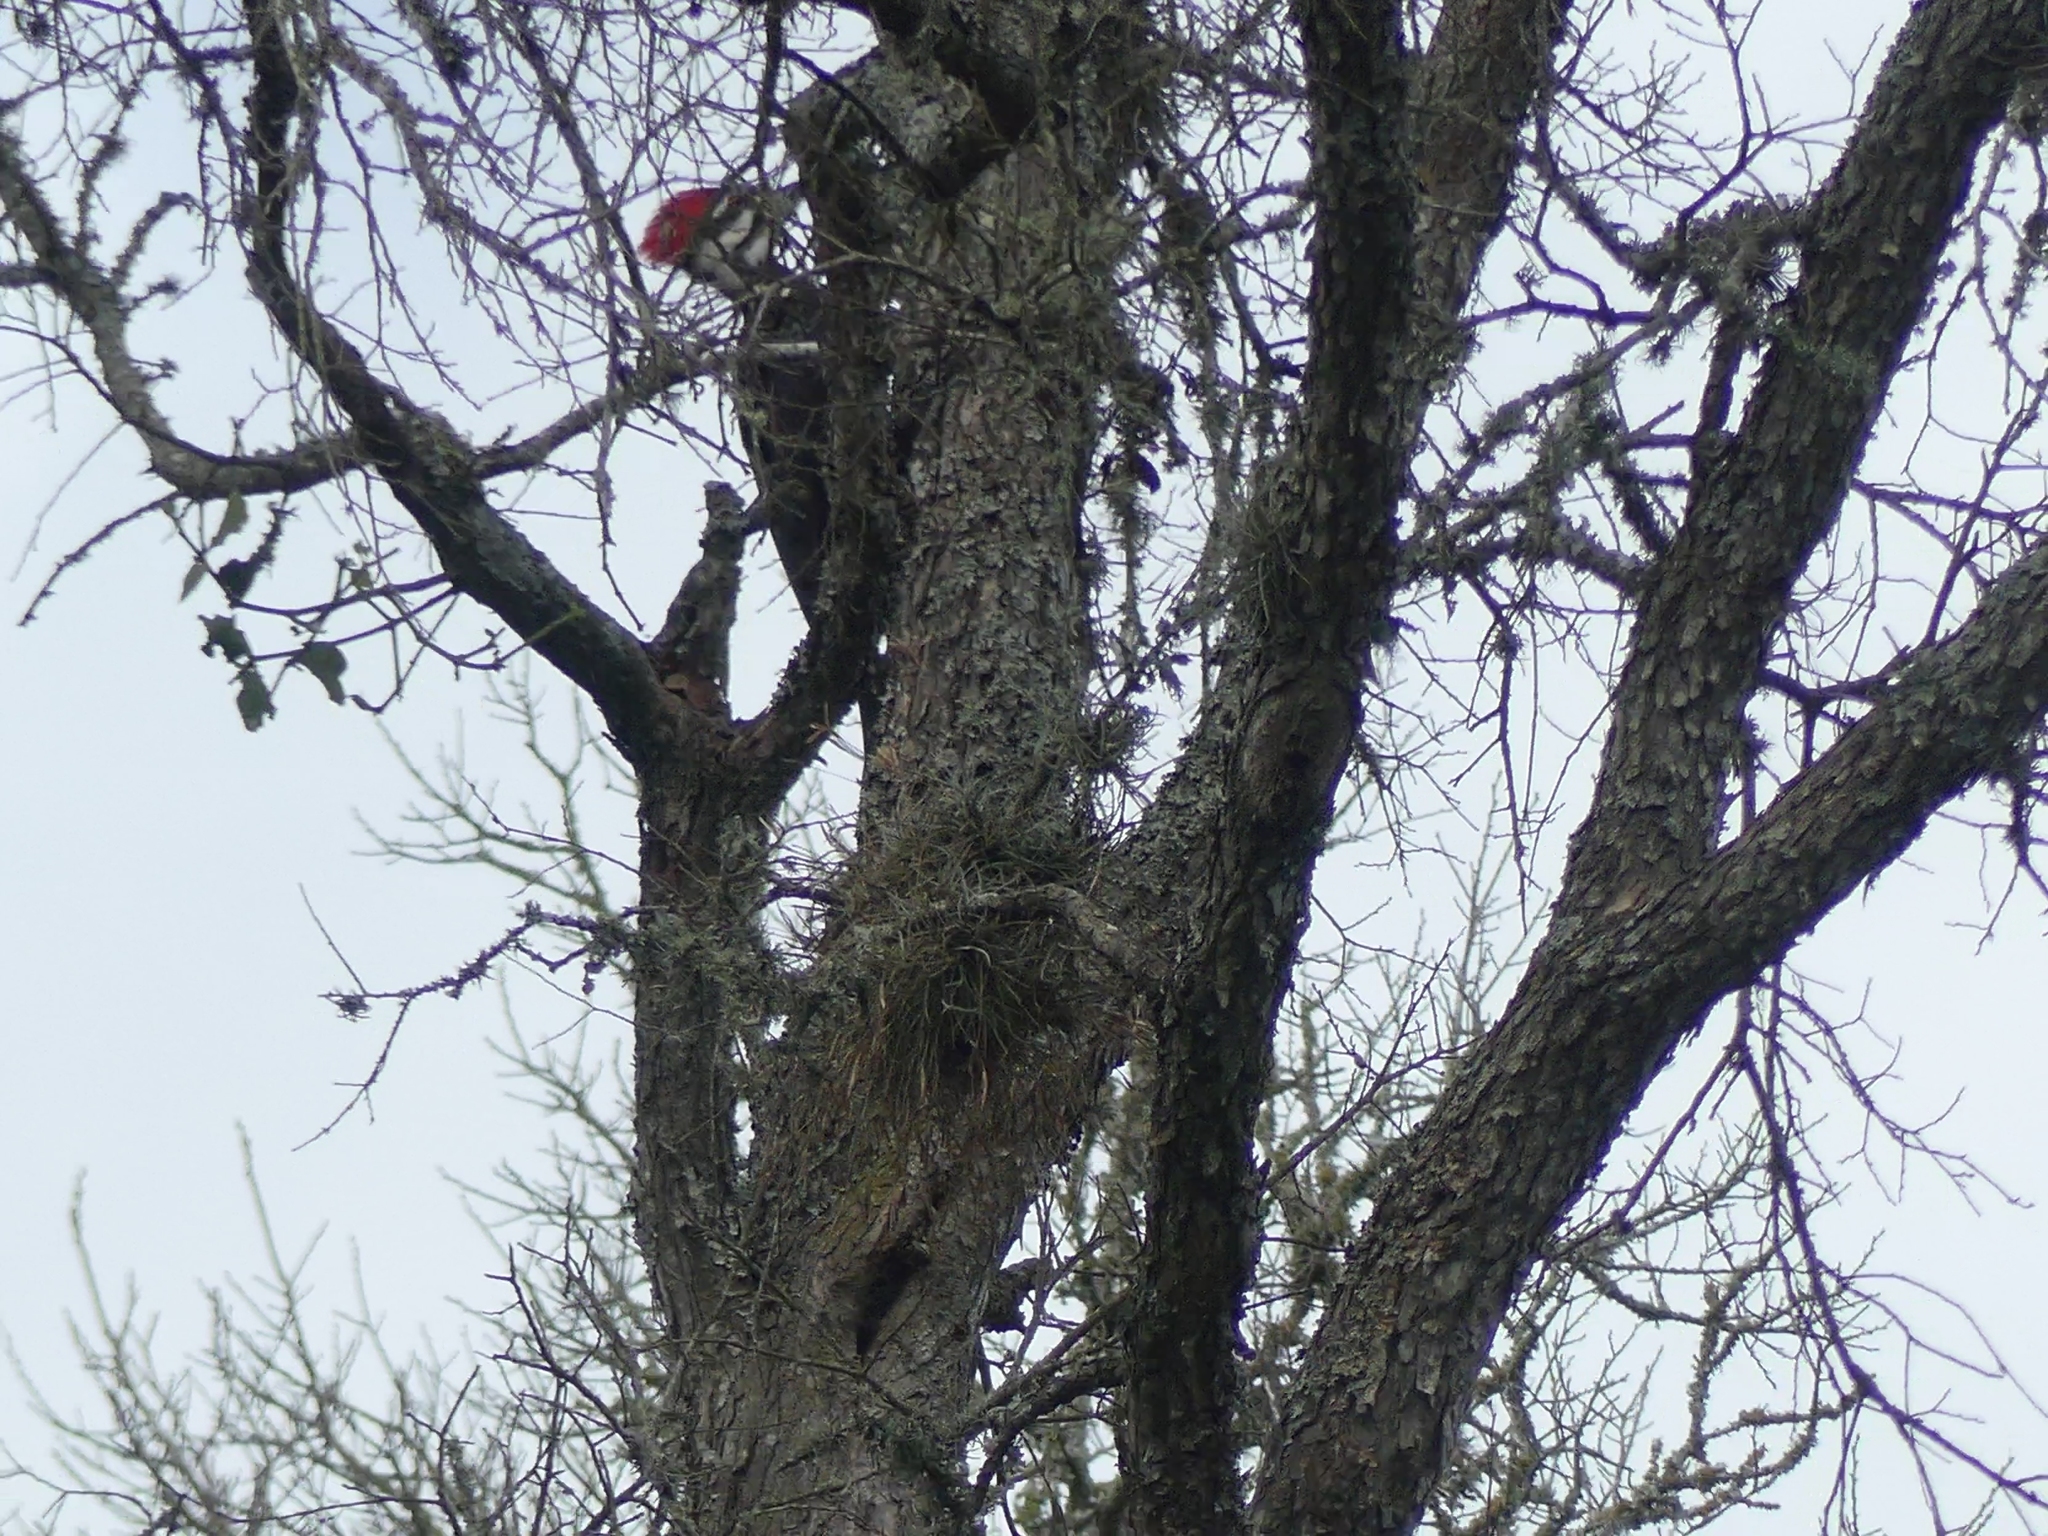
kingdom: Animalia
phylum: Chordata
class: Aves
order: Piciformes
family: Picidae
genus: Dryocopus
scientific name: Dryocopus pileatus
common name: Pileated woodpecker
